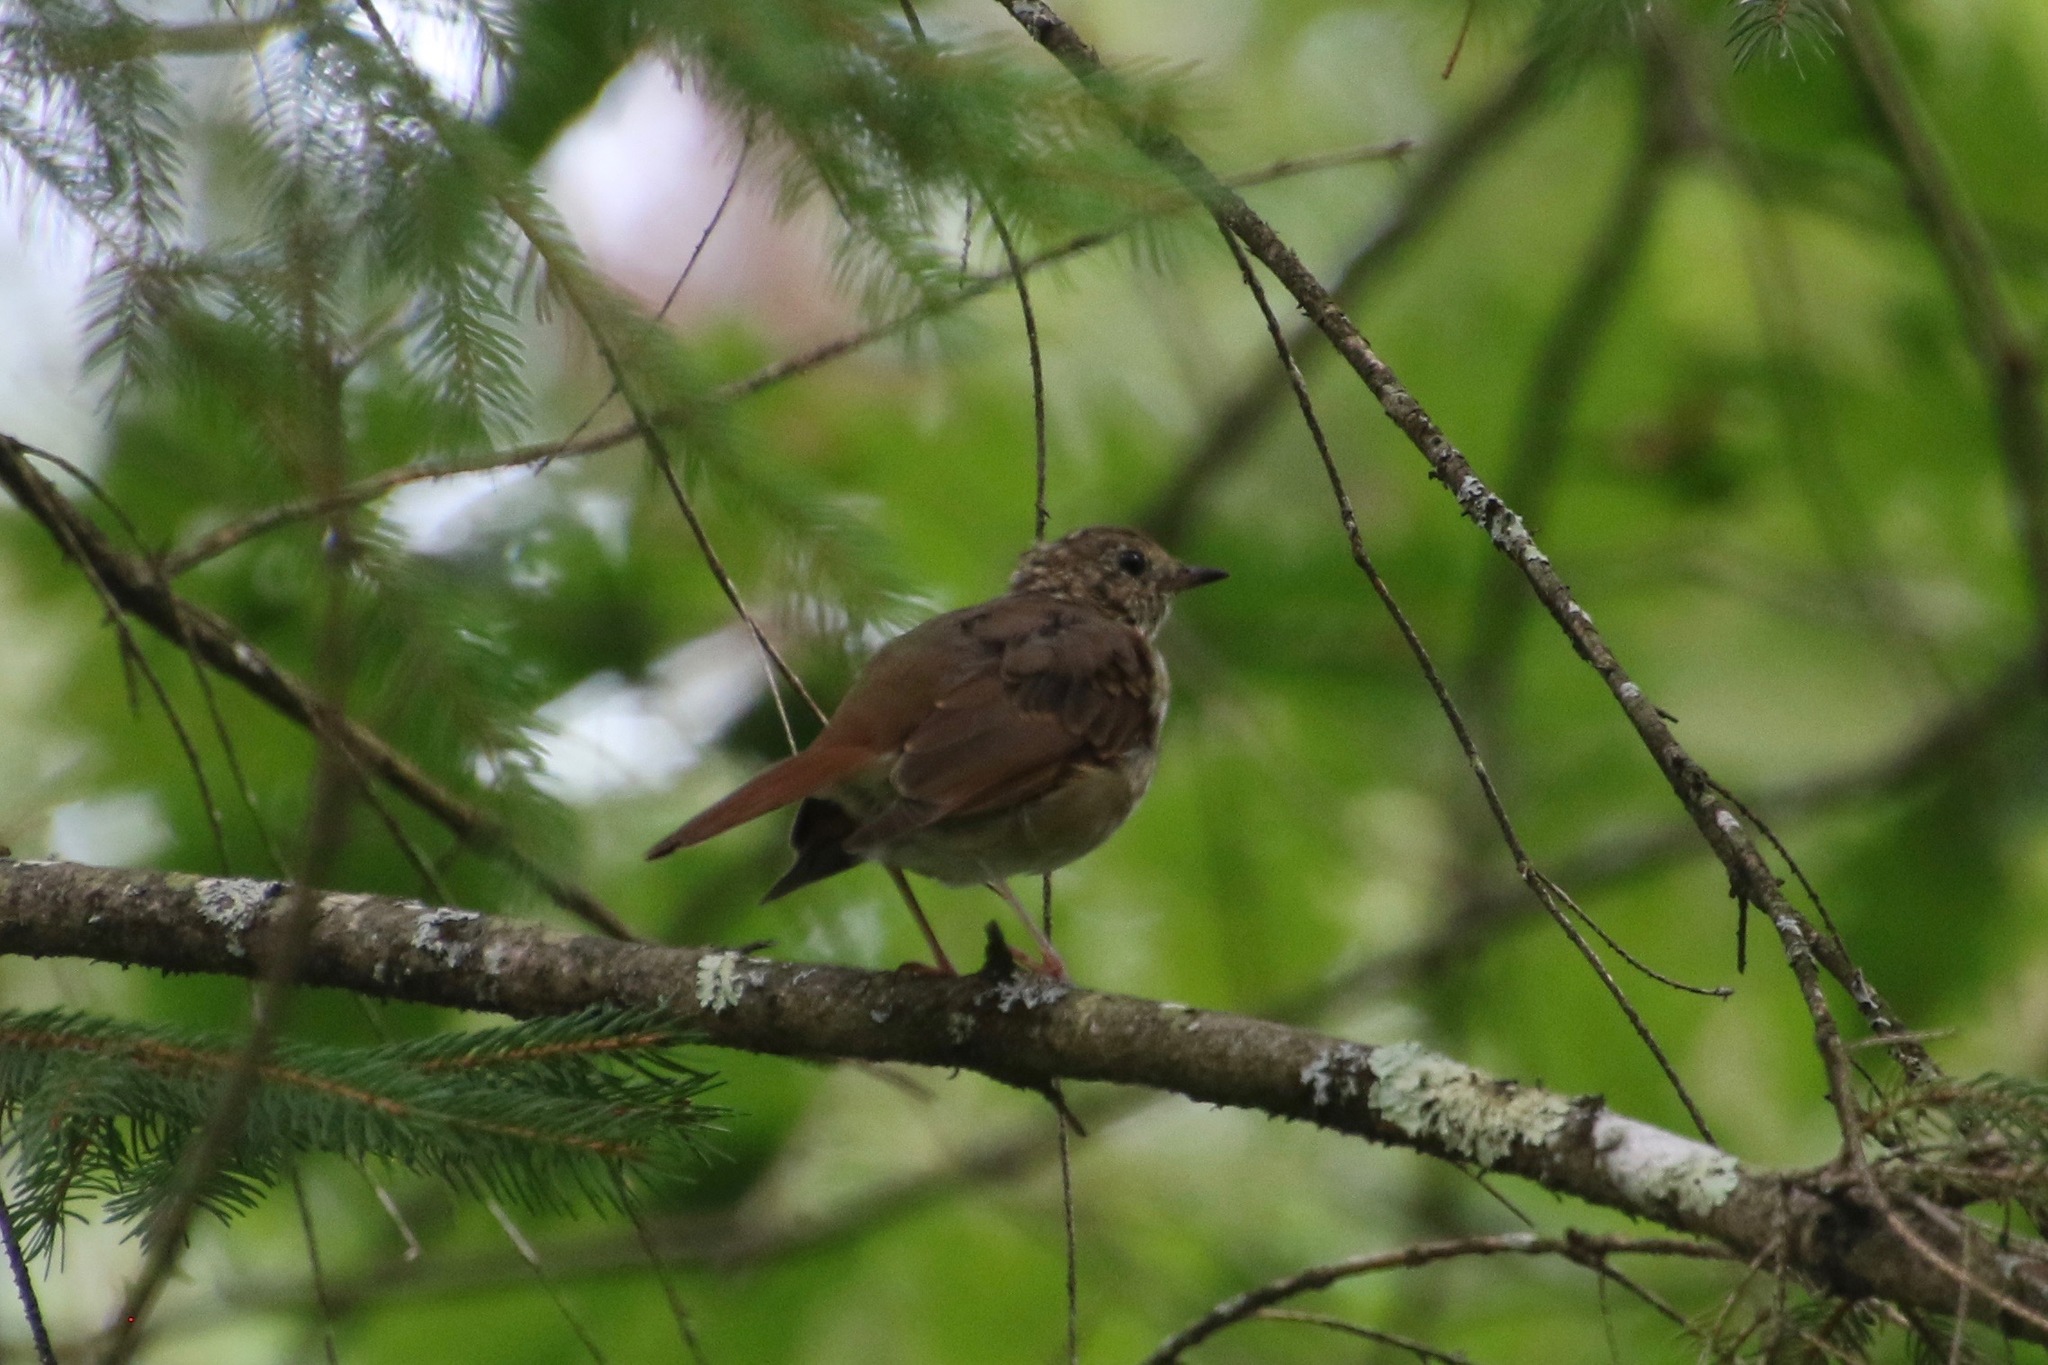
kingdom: Animalia
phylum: Chordata
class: Aves
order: Passeriformes
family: Turdidae
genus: Catharus
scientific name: Catharus guttatus
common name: Hermit thrush
